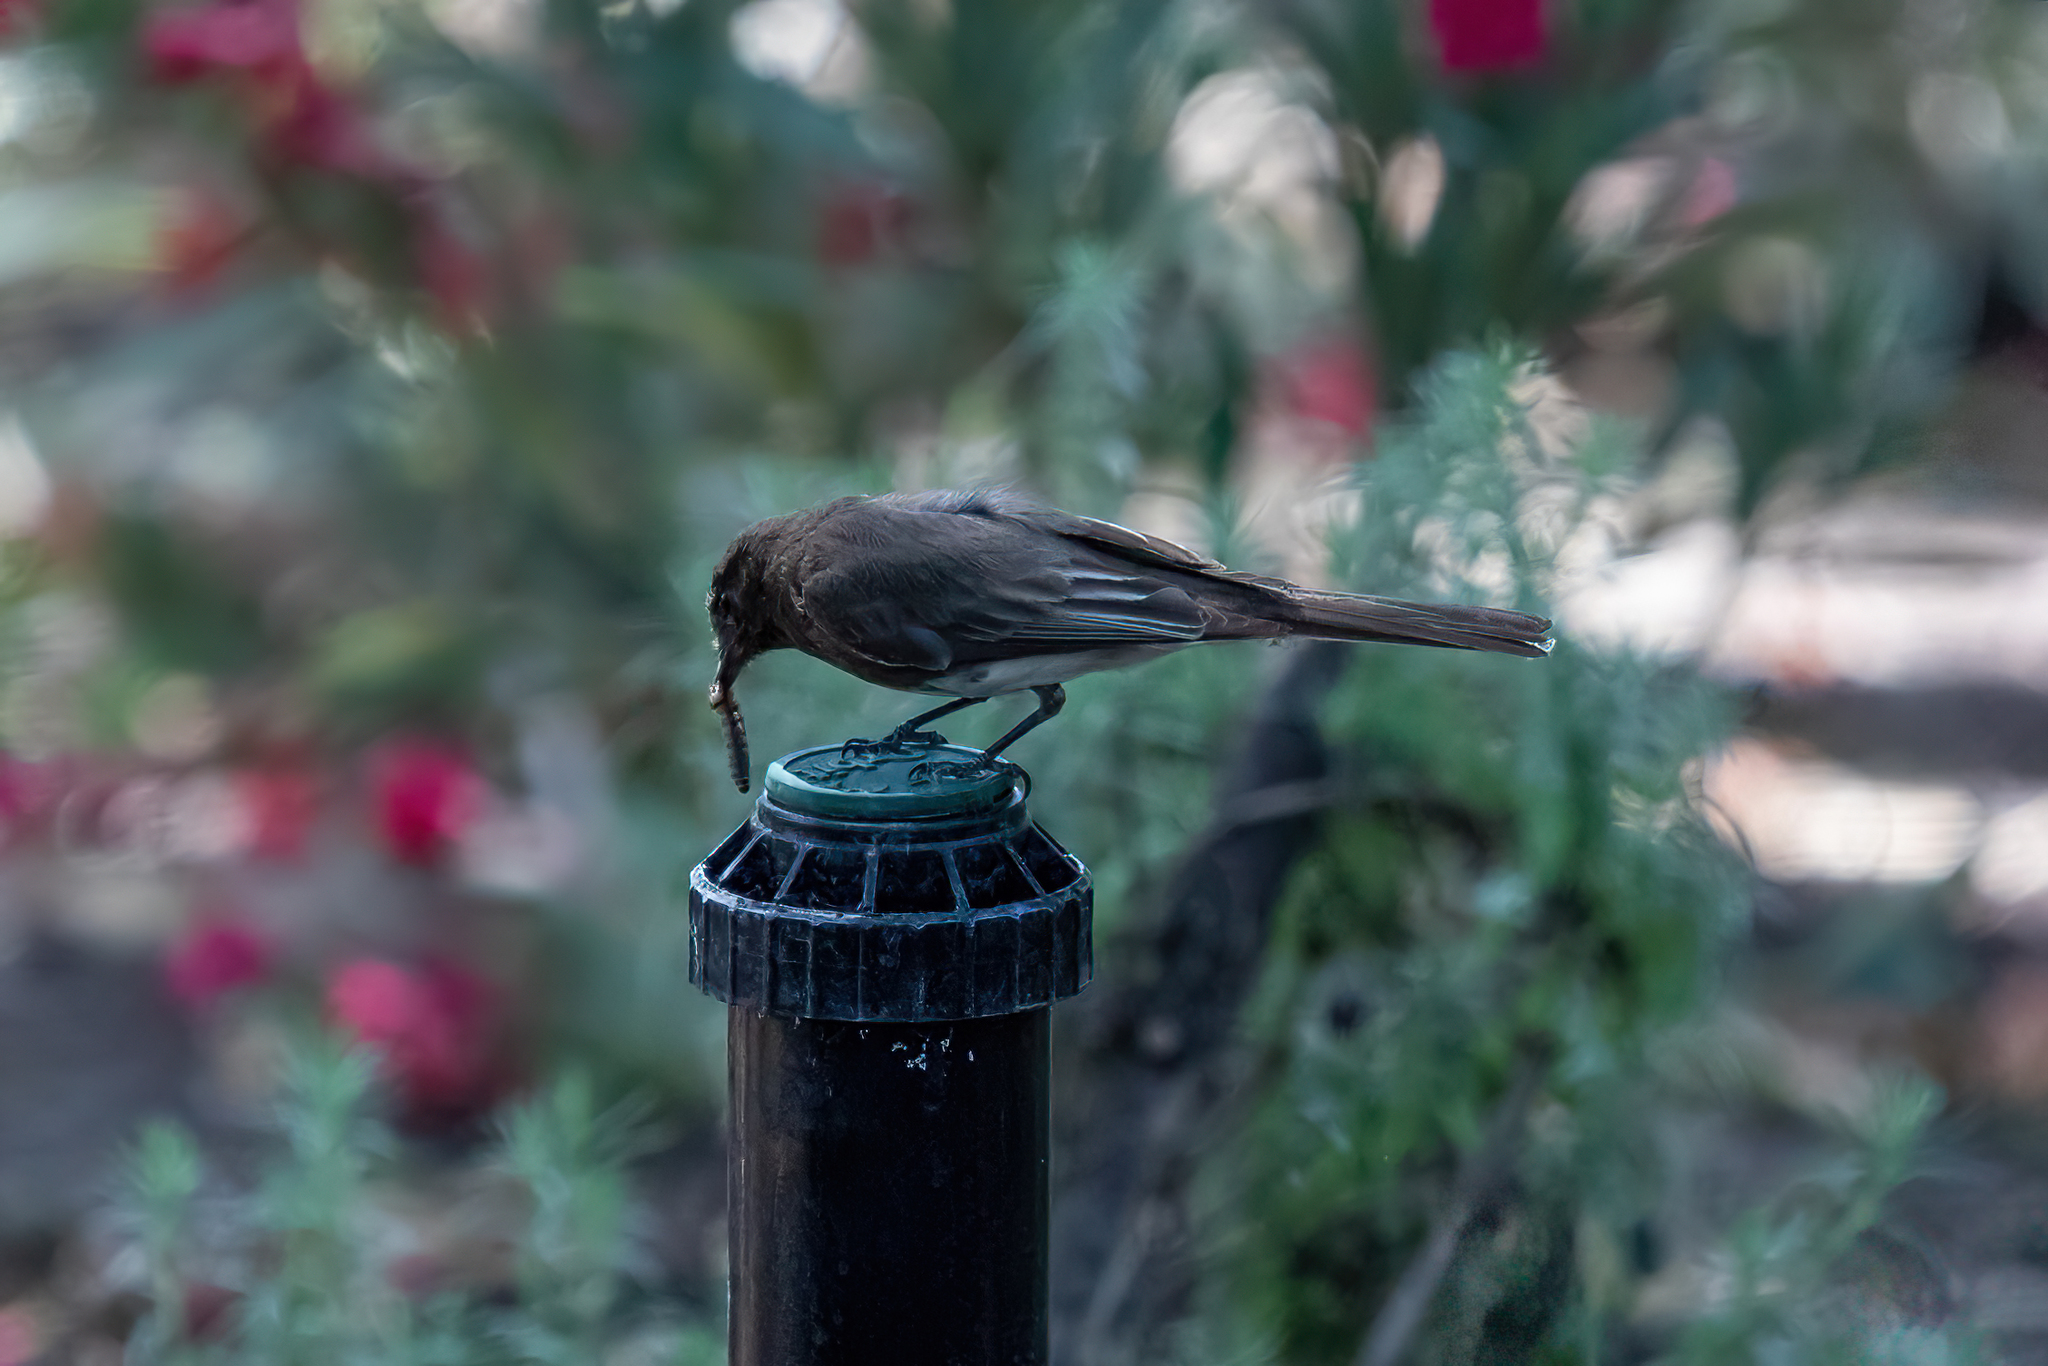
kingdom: Animalia
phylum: Chordata
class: Aves
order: Passeriformes
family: Tyrannidae
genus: Sayornis
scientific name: Sayornis nigricans
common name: Black phoebe
